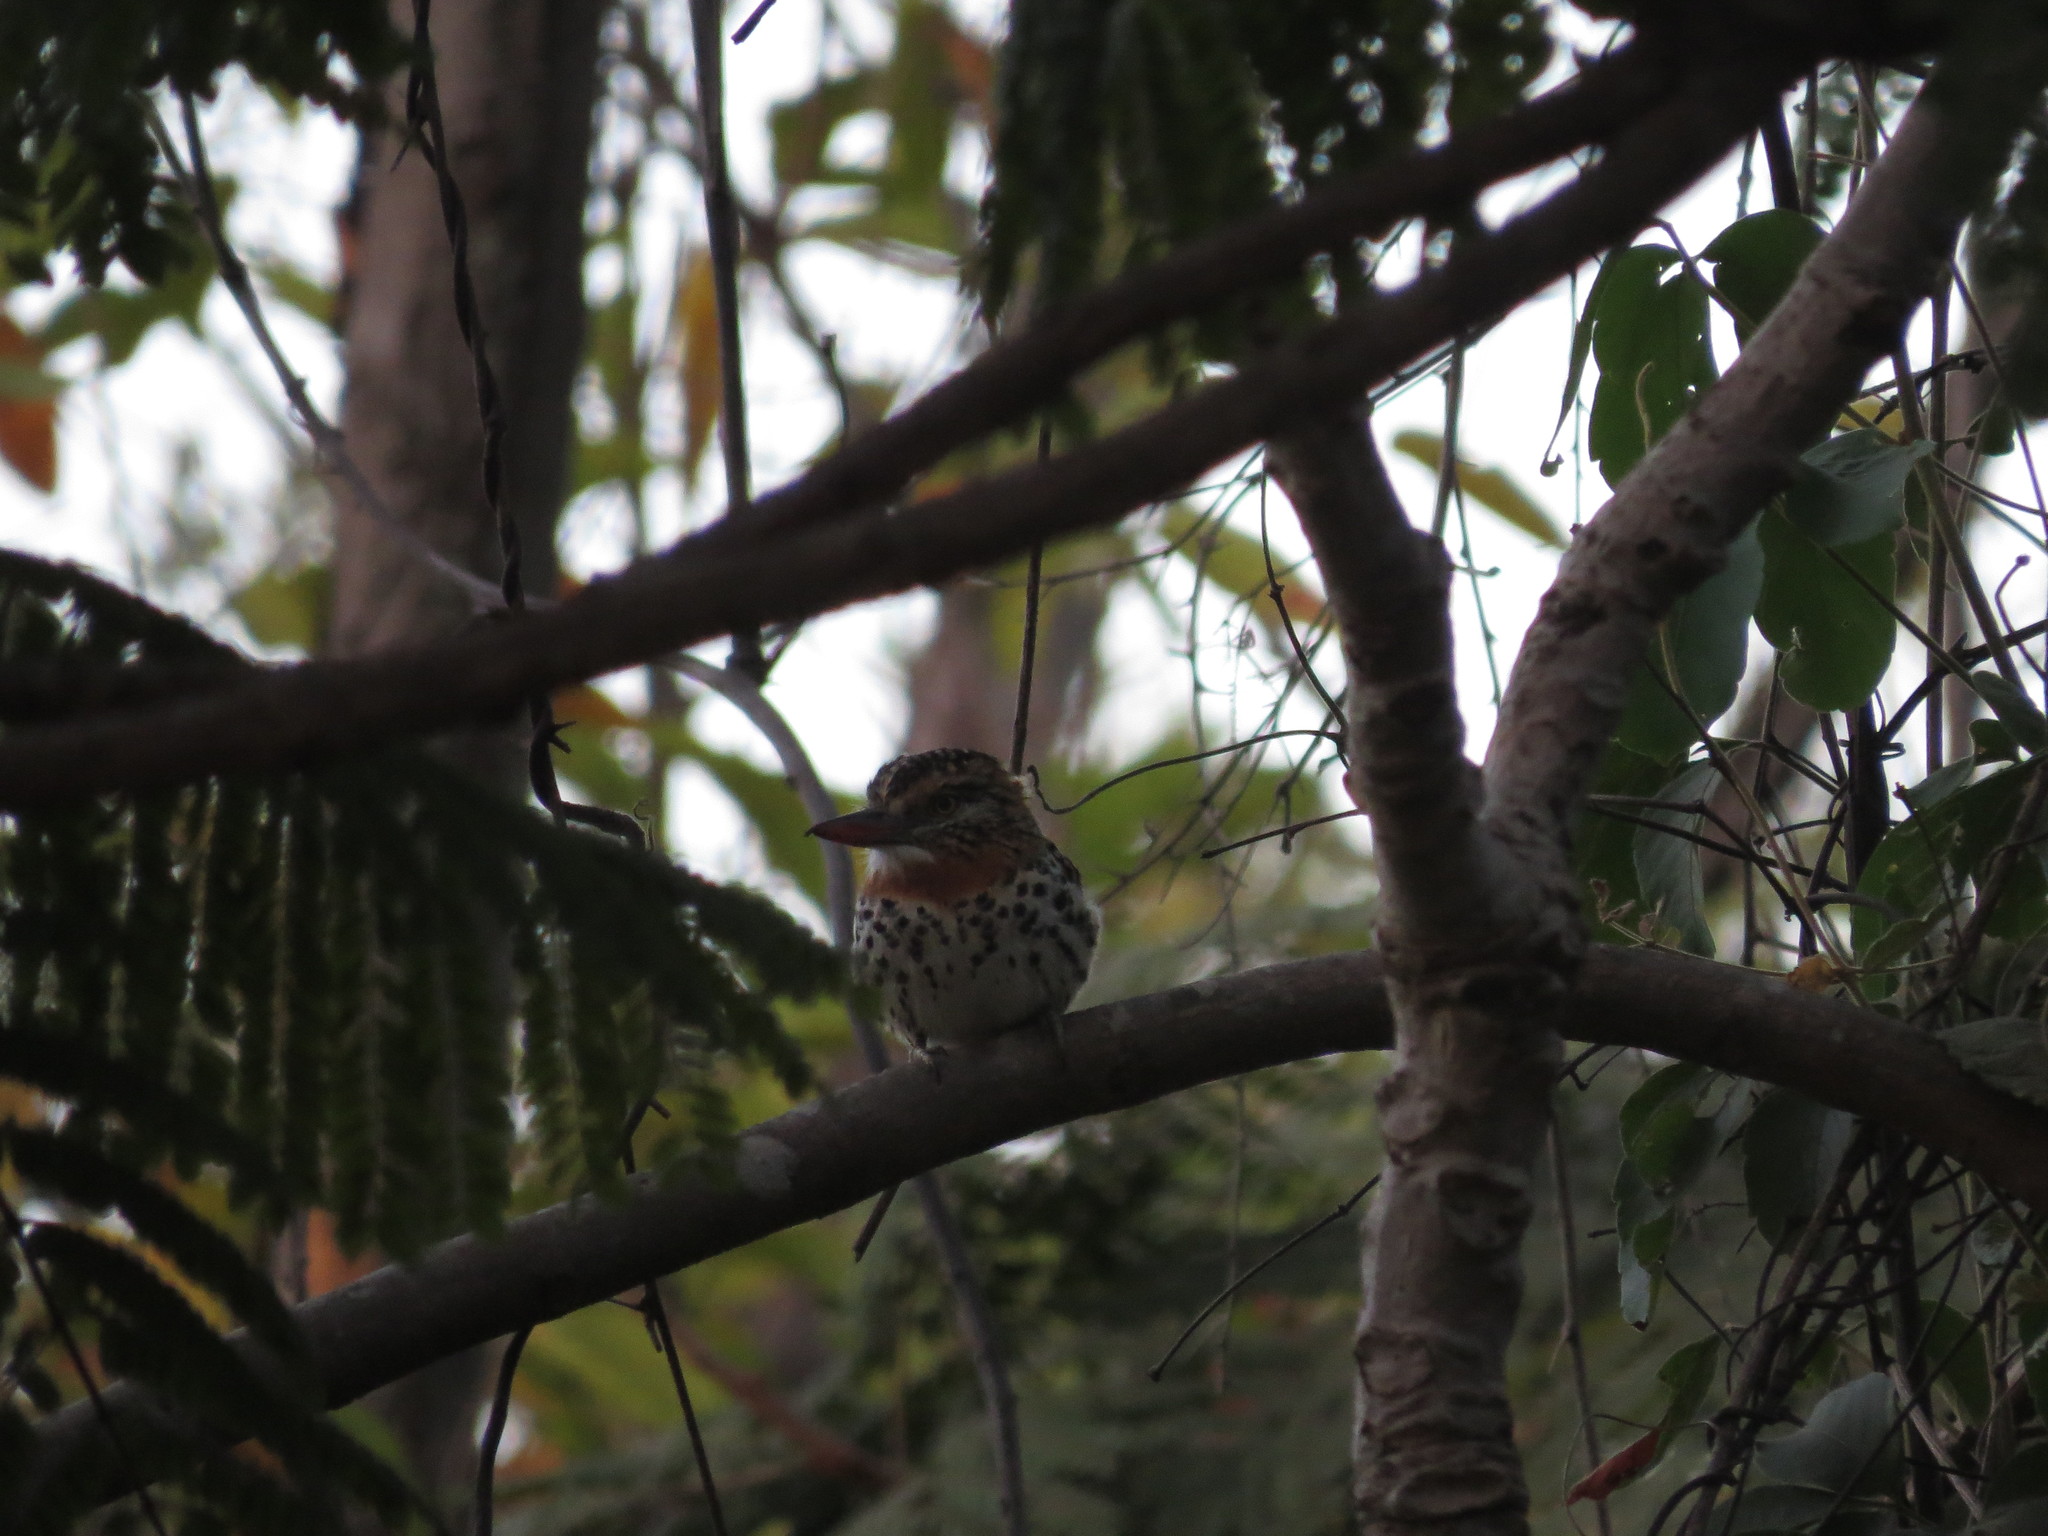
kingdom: Animalia
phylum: Chordata
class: Aves
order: Piciformes
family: Bucconidae
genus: Nystalus
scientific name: Nystalus maculatus
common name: Caatinga puffbird
